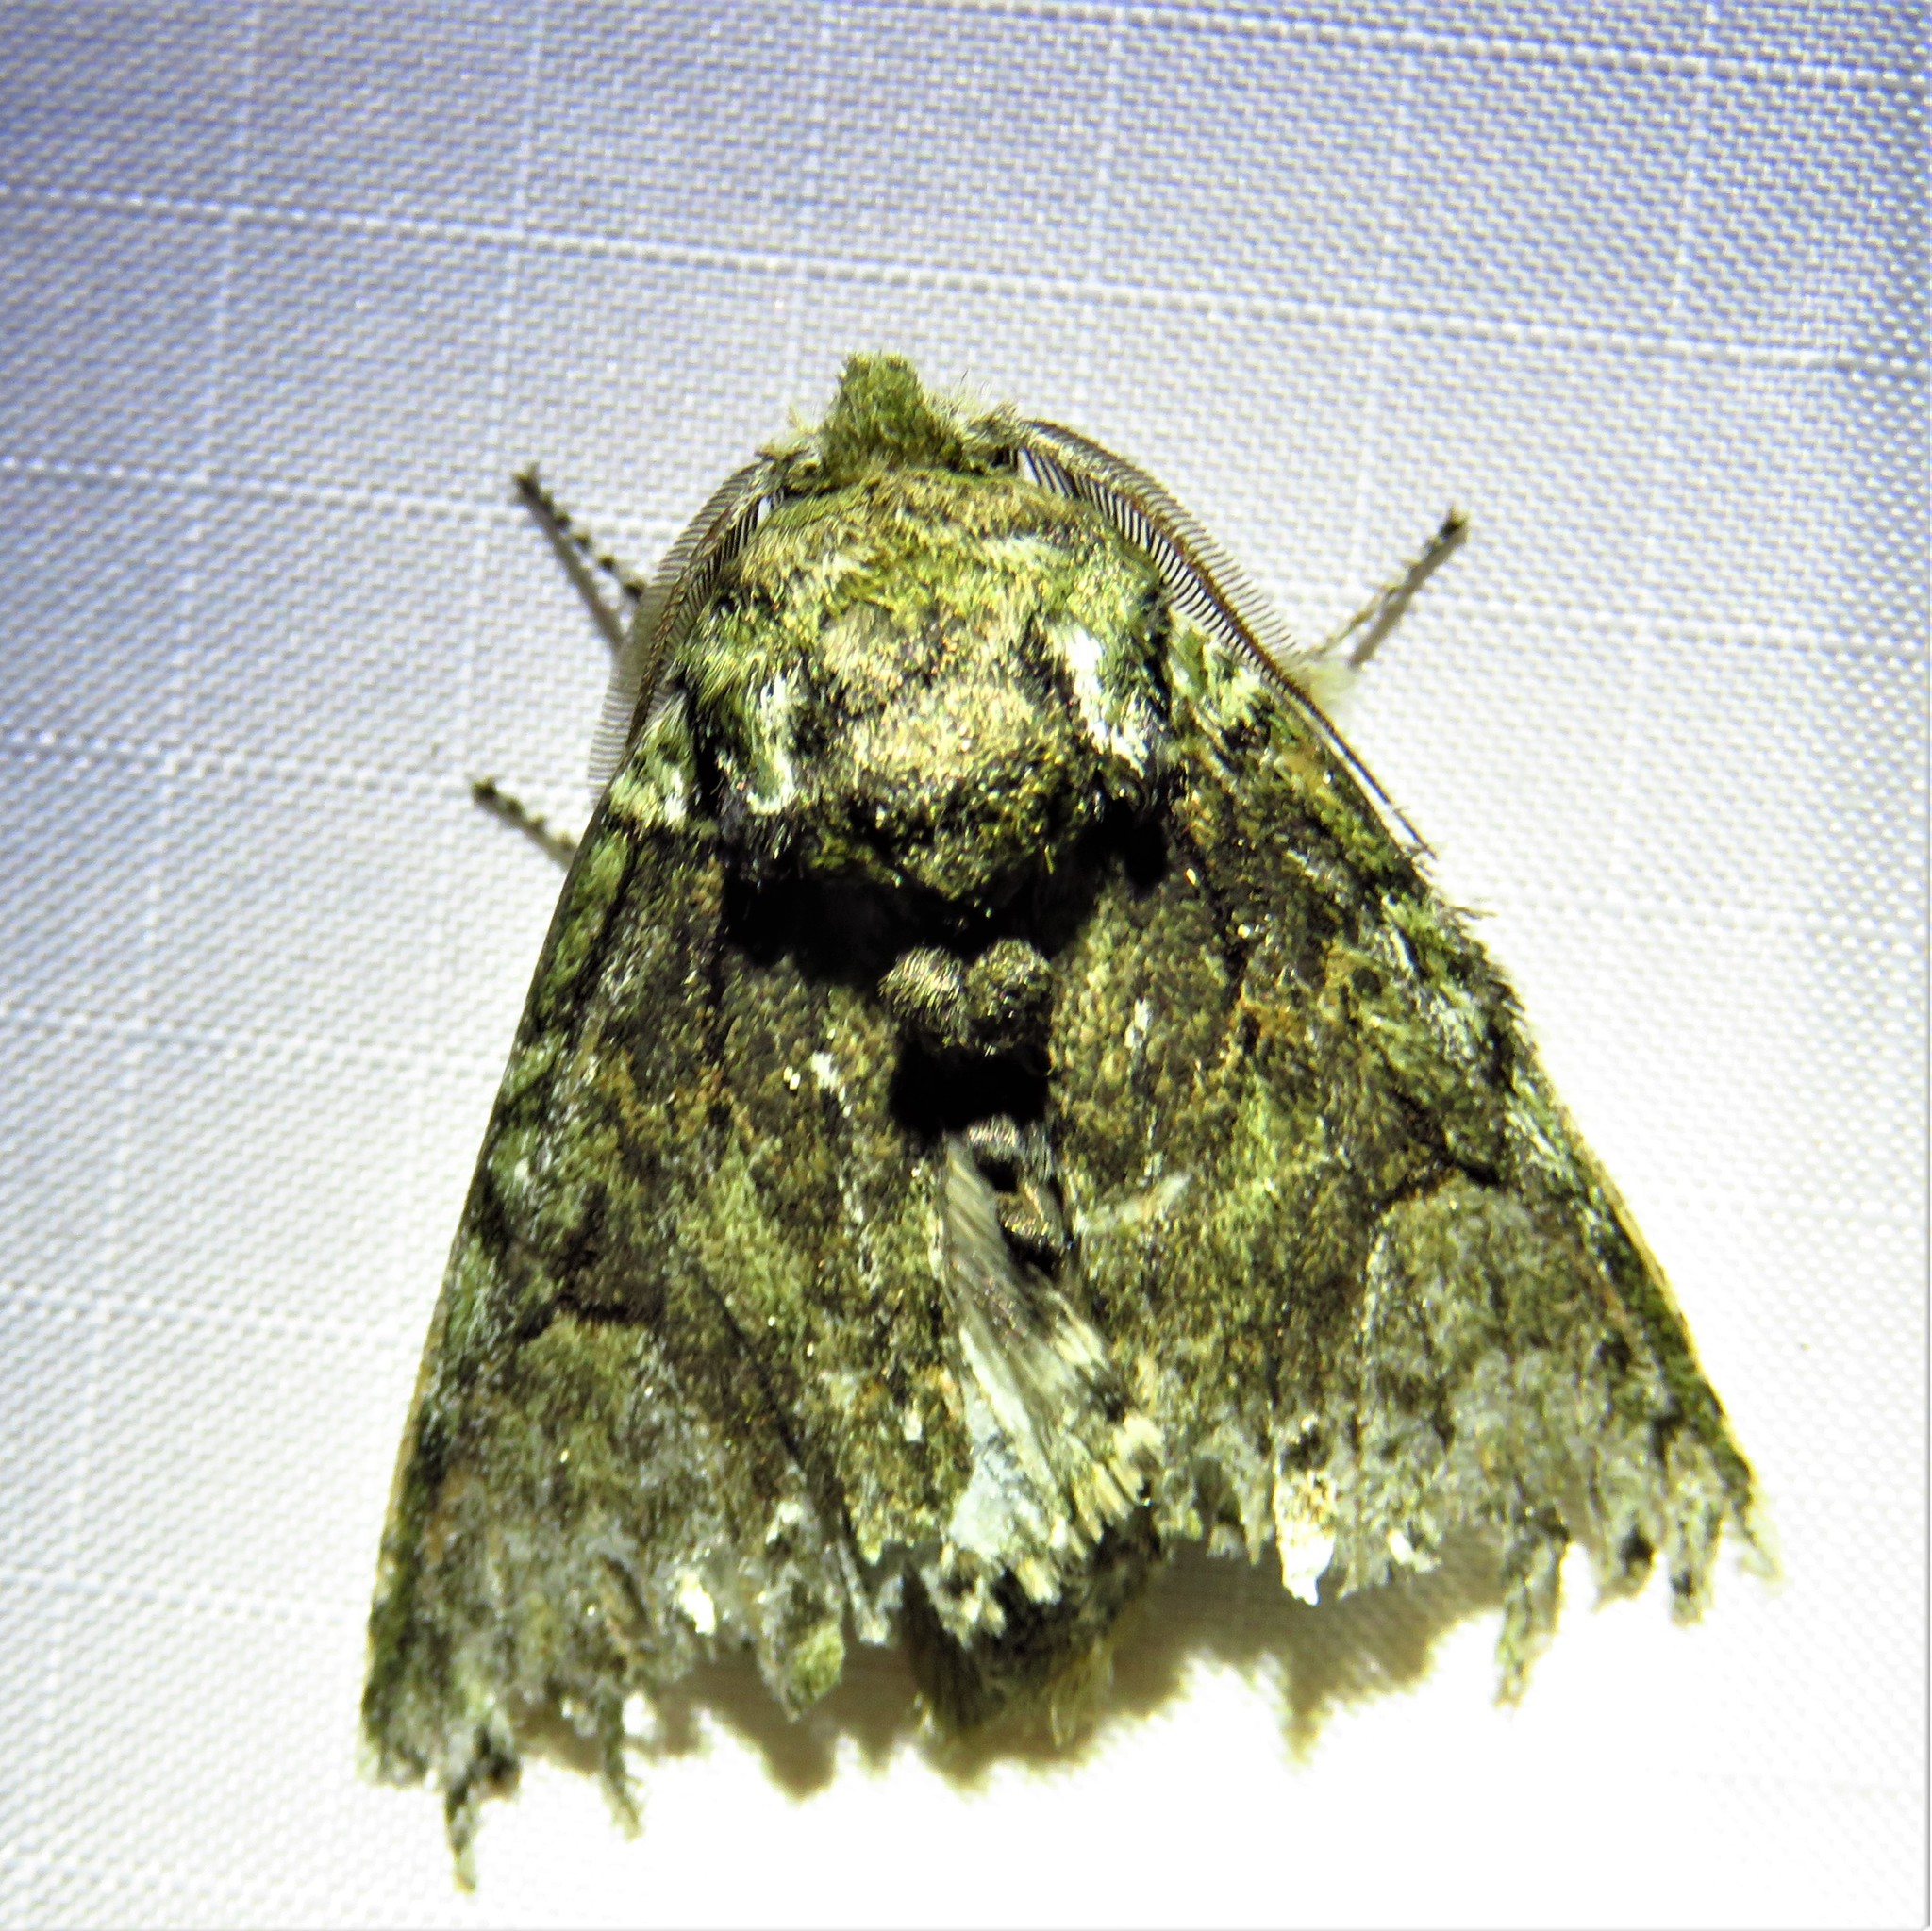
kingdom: Animalia
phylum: Arthropoda
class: Insecta
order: Lepidoptera
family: Notodontidae
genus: Heterocampa
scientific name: Heterocampa
